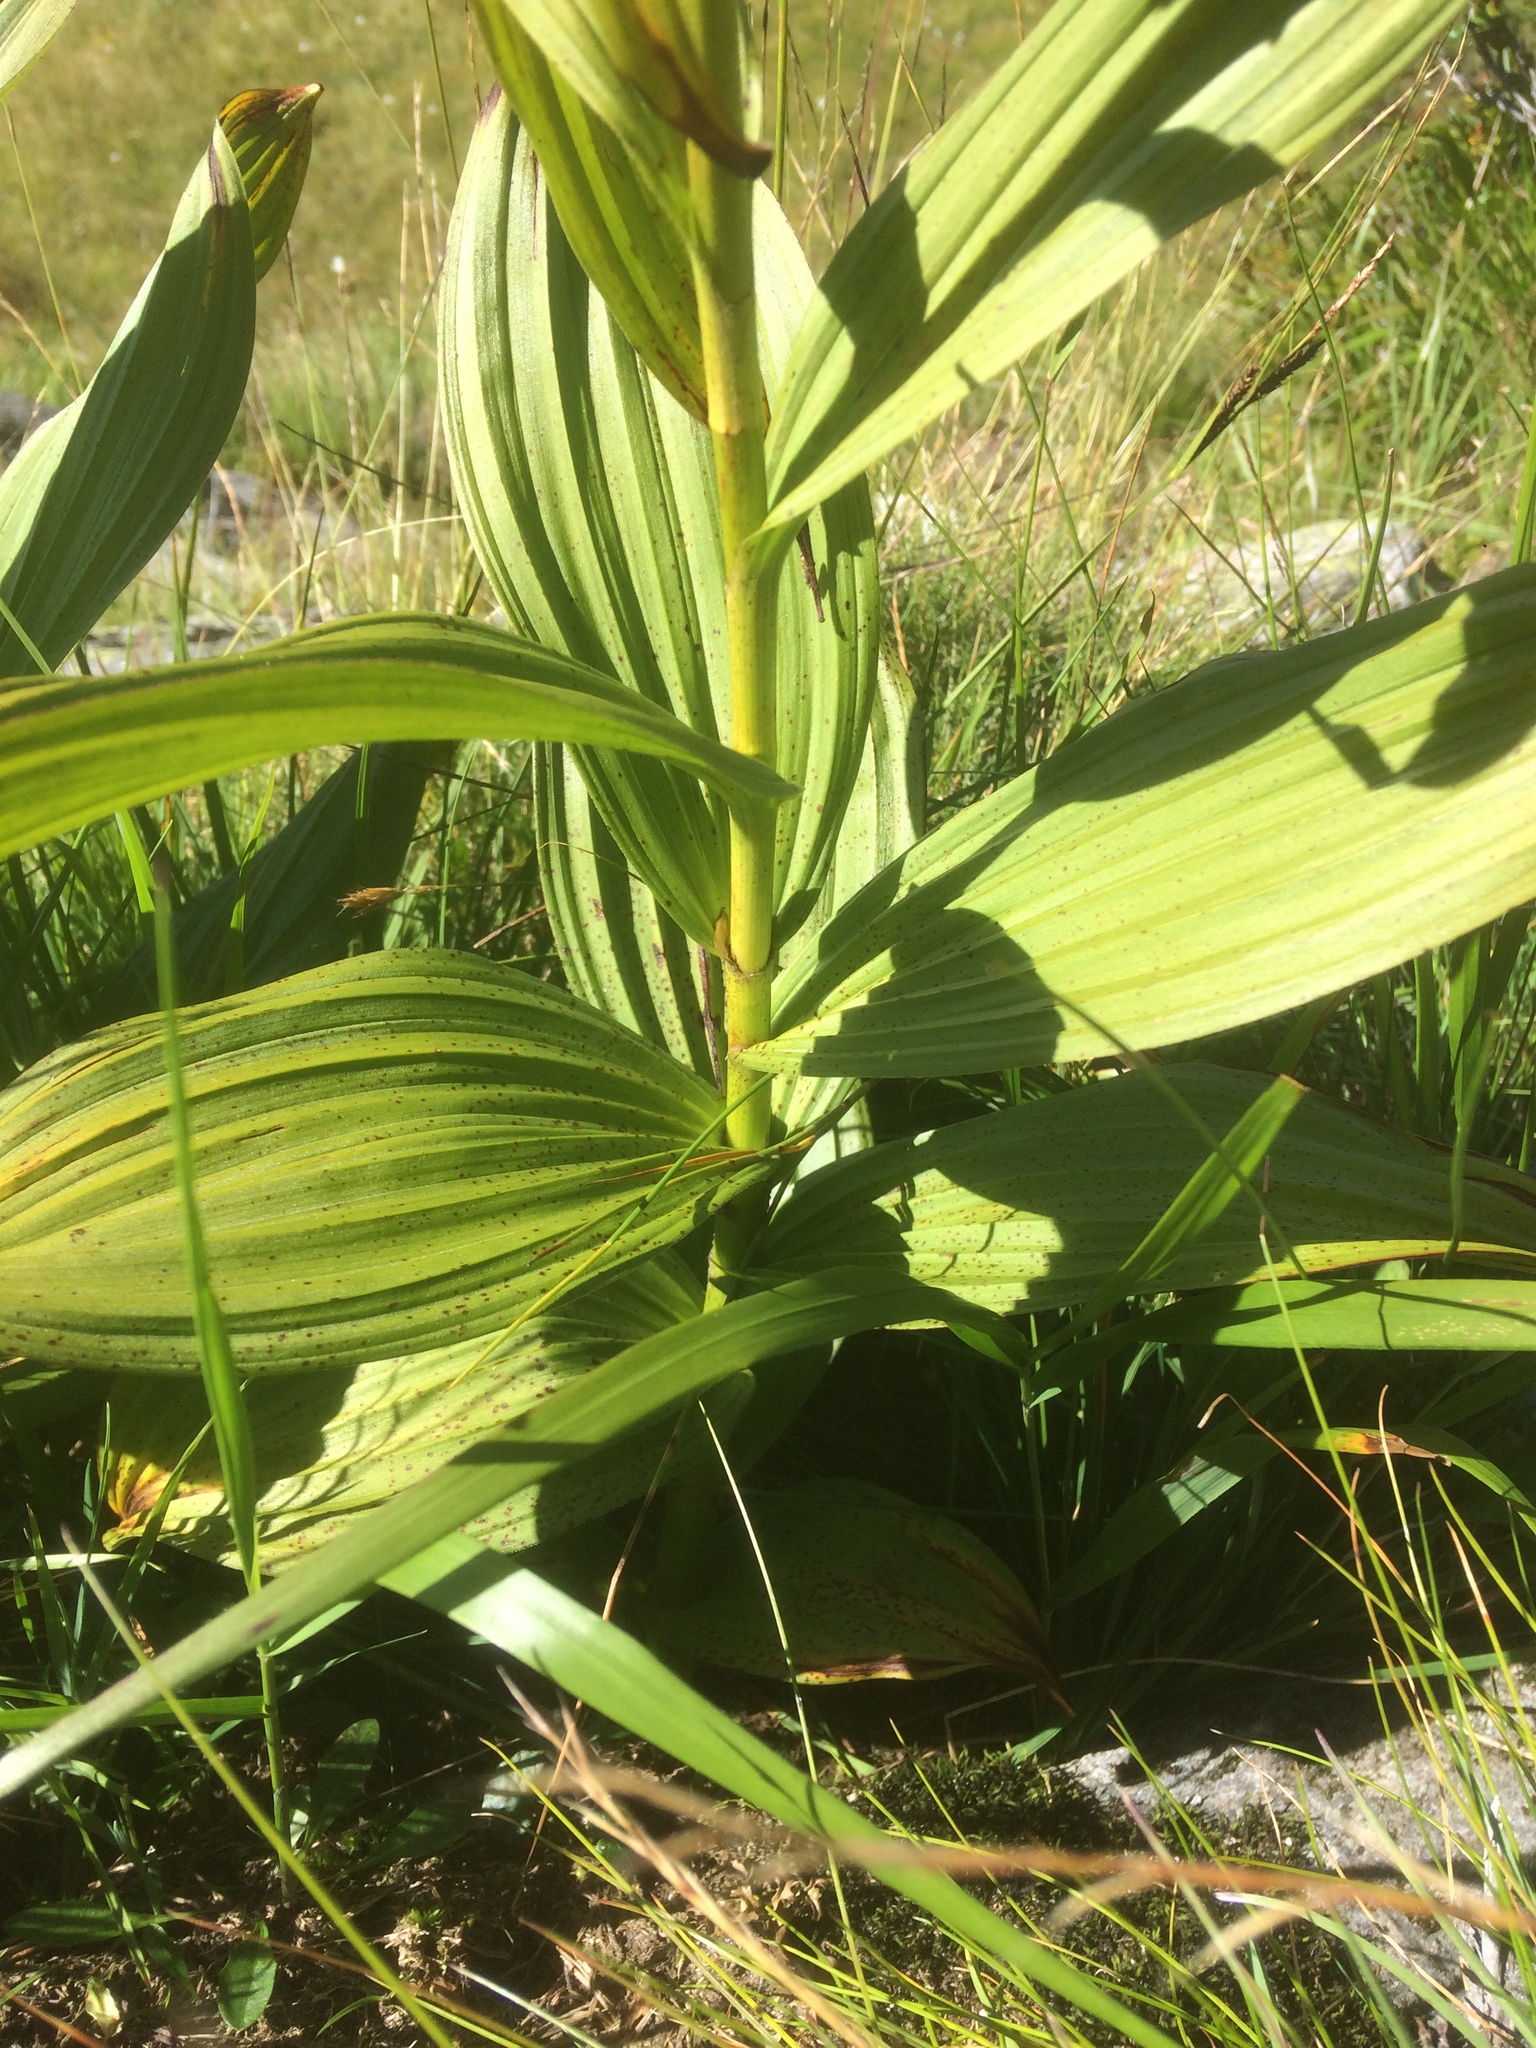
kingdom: Plantae
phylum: Tracheophyta
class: Liliopsida
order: Liliales
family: Melanthiaceae
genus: Veratrum
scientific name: Veratrum album
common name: White veratrum
